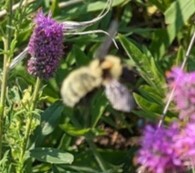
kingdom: Animalia
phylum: Arthropoda
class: Insecta
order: Hymenoptera
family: Apidae
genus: Bombus
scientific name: Bombus fervidus
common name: Yellow bumble bee
